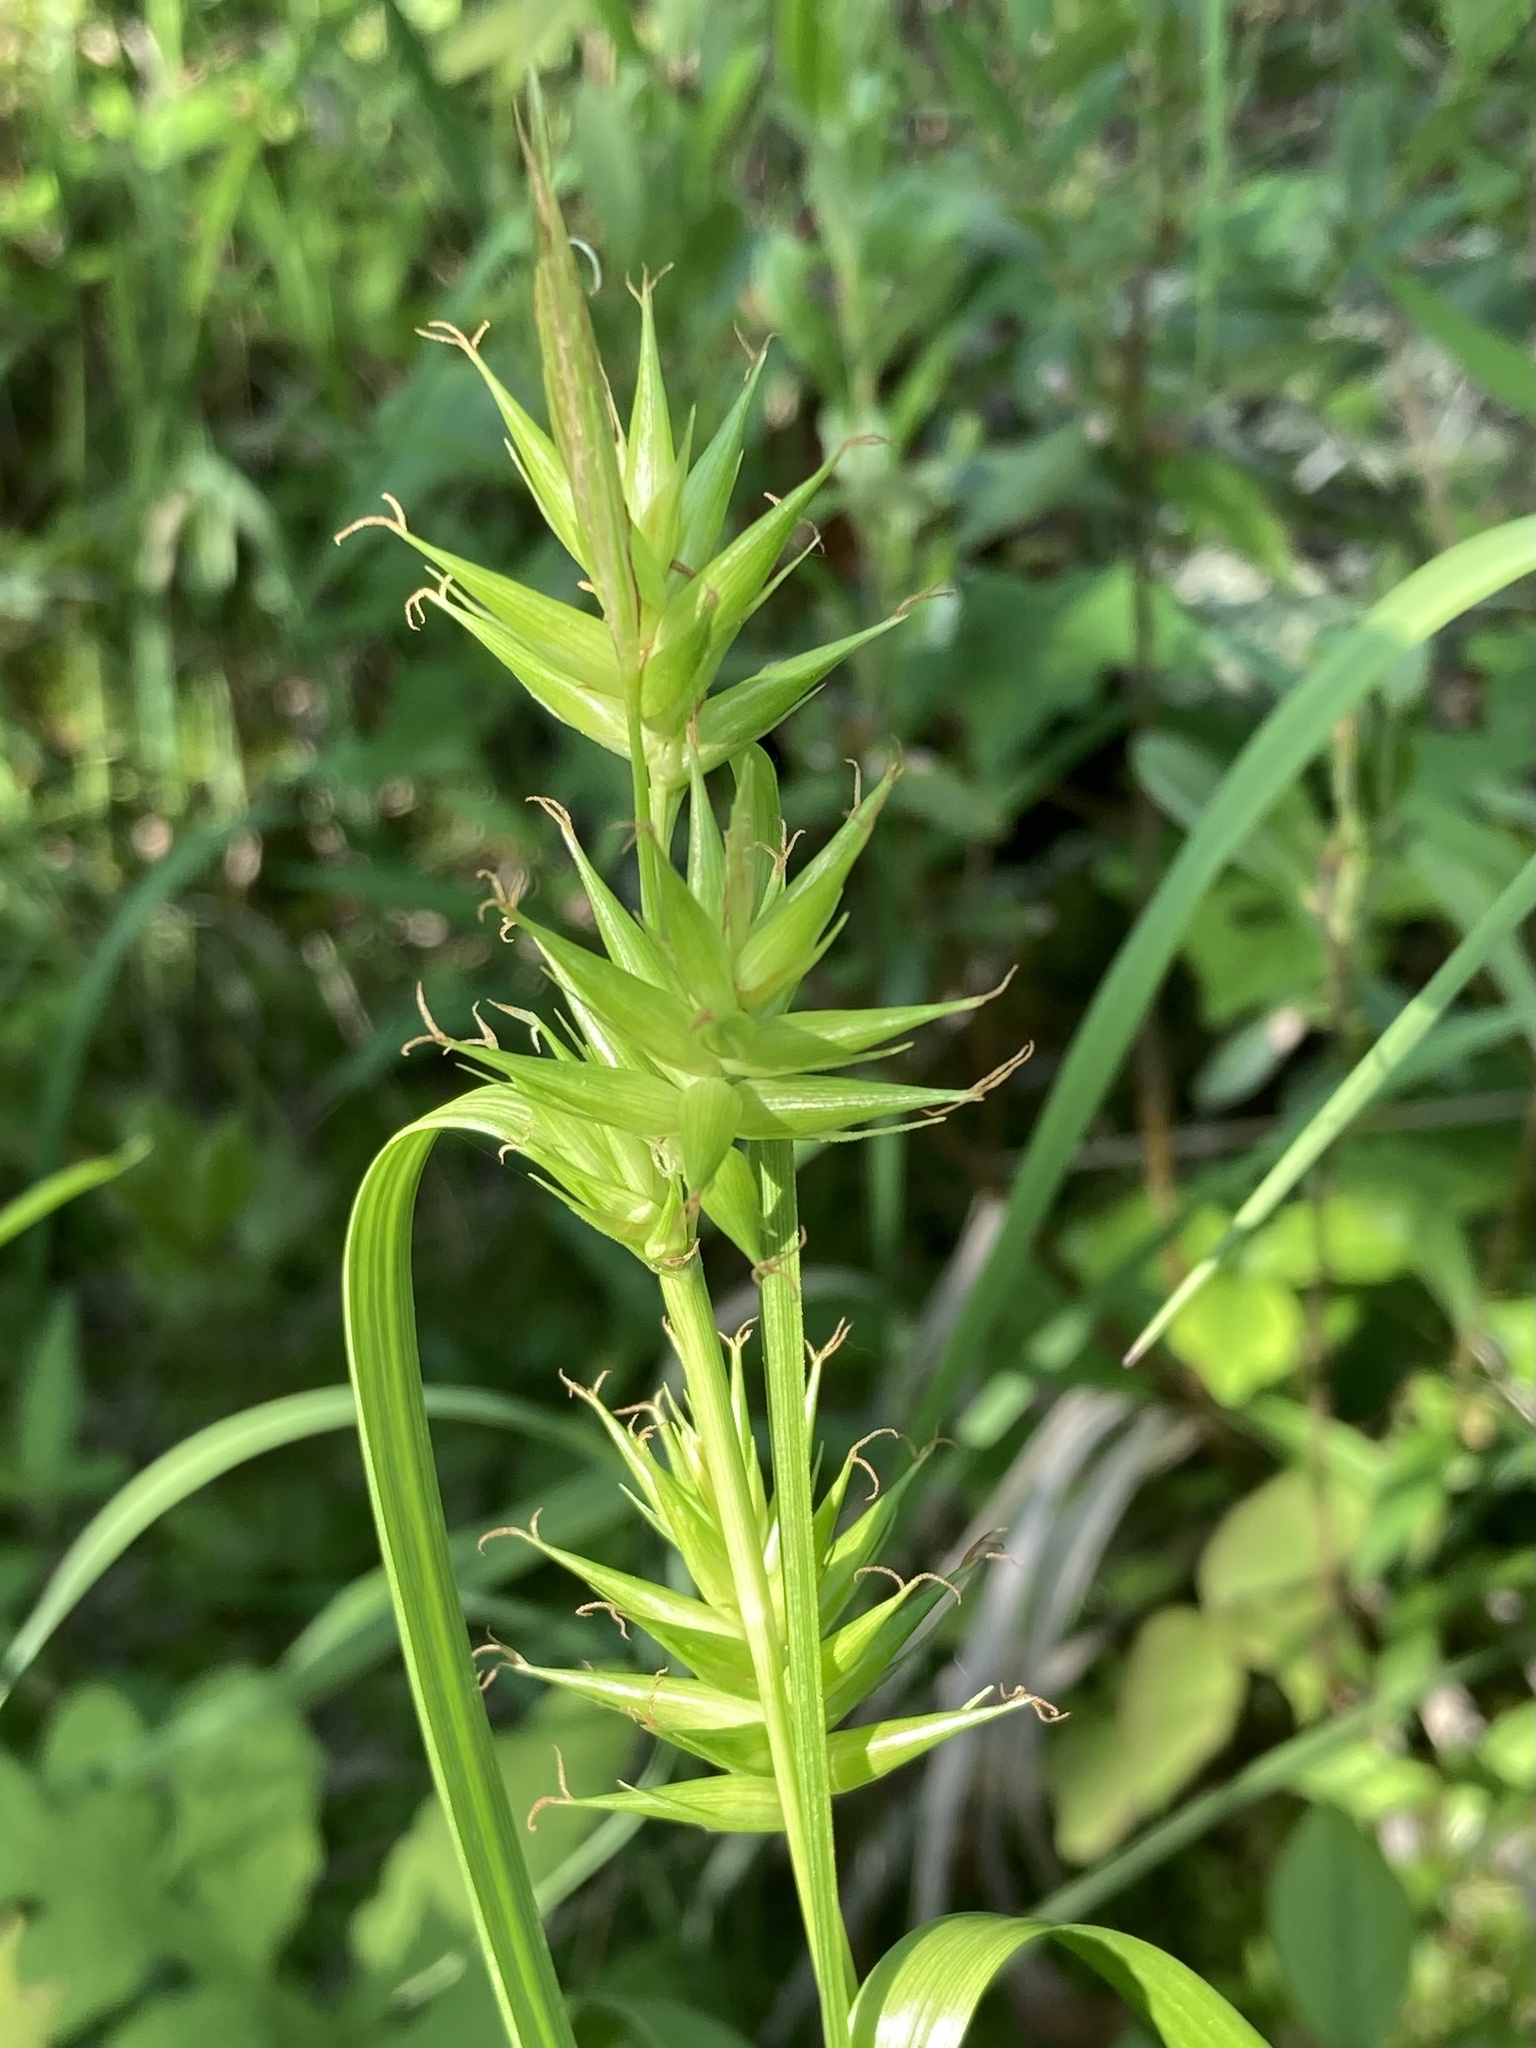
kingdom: Plantae
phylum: Tracheophyta
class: Liliopsida
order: Poales
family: Cyperaceae
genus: Carex
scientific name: Carex folliculata
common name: Northern long sedge
